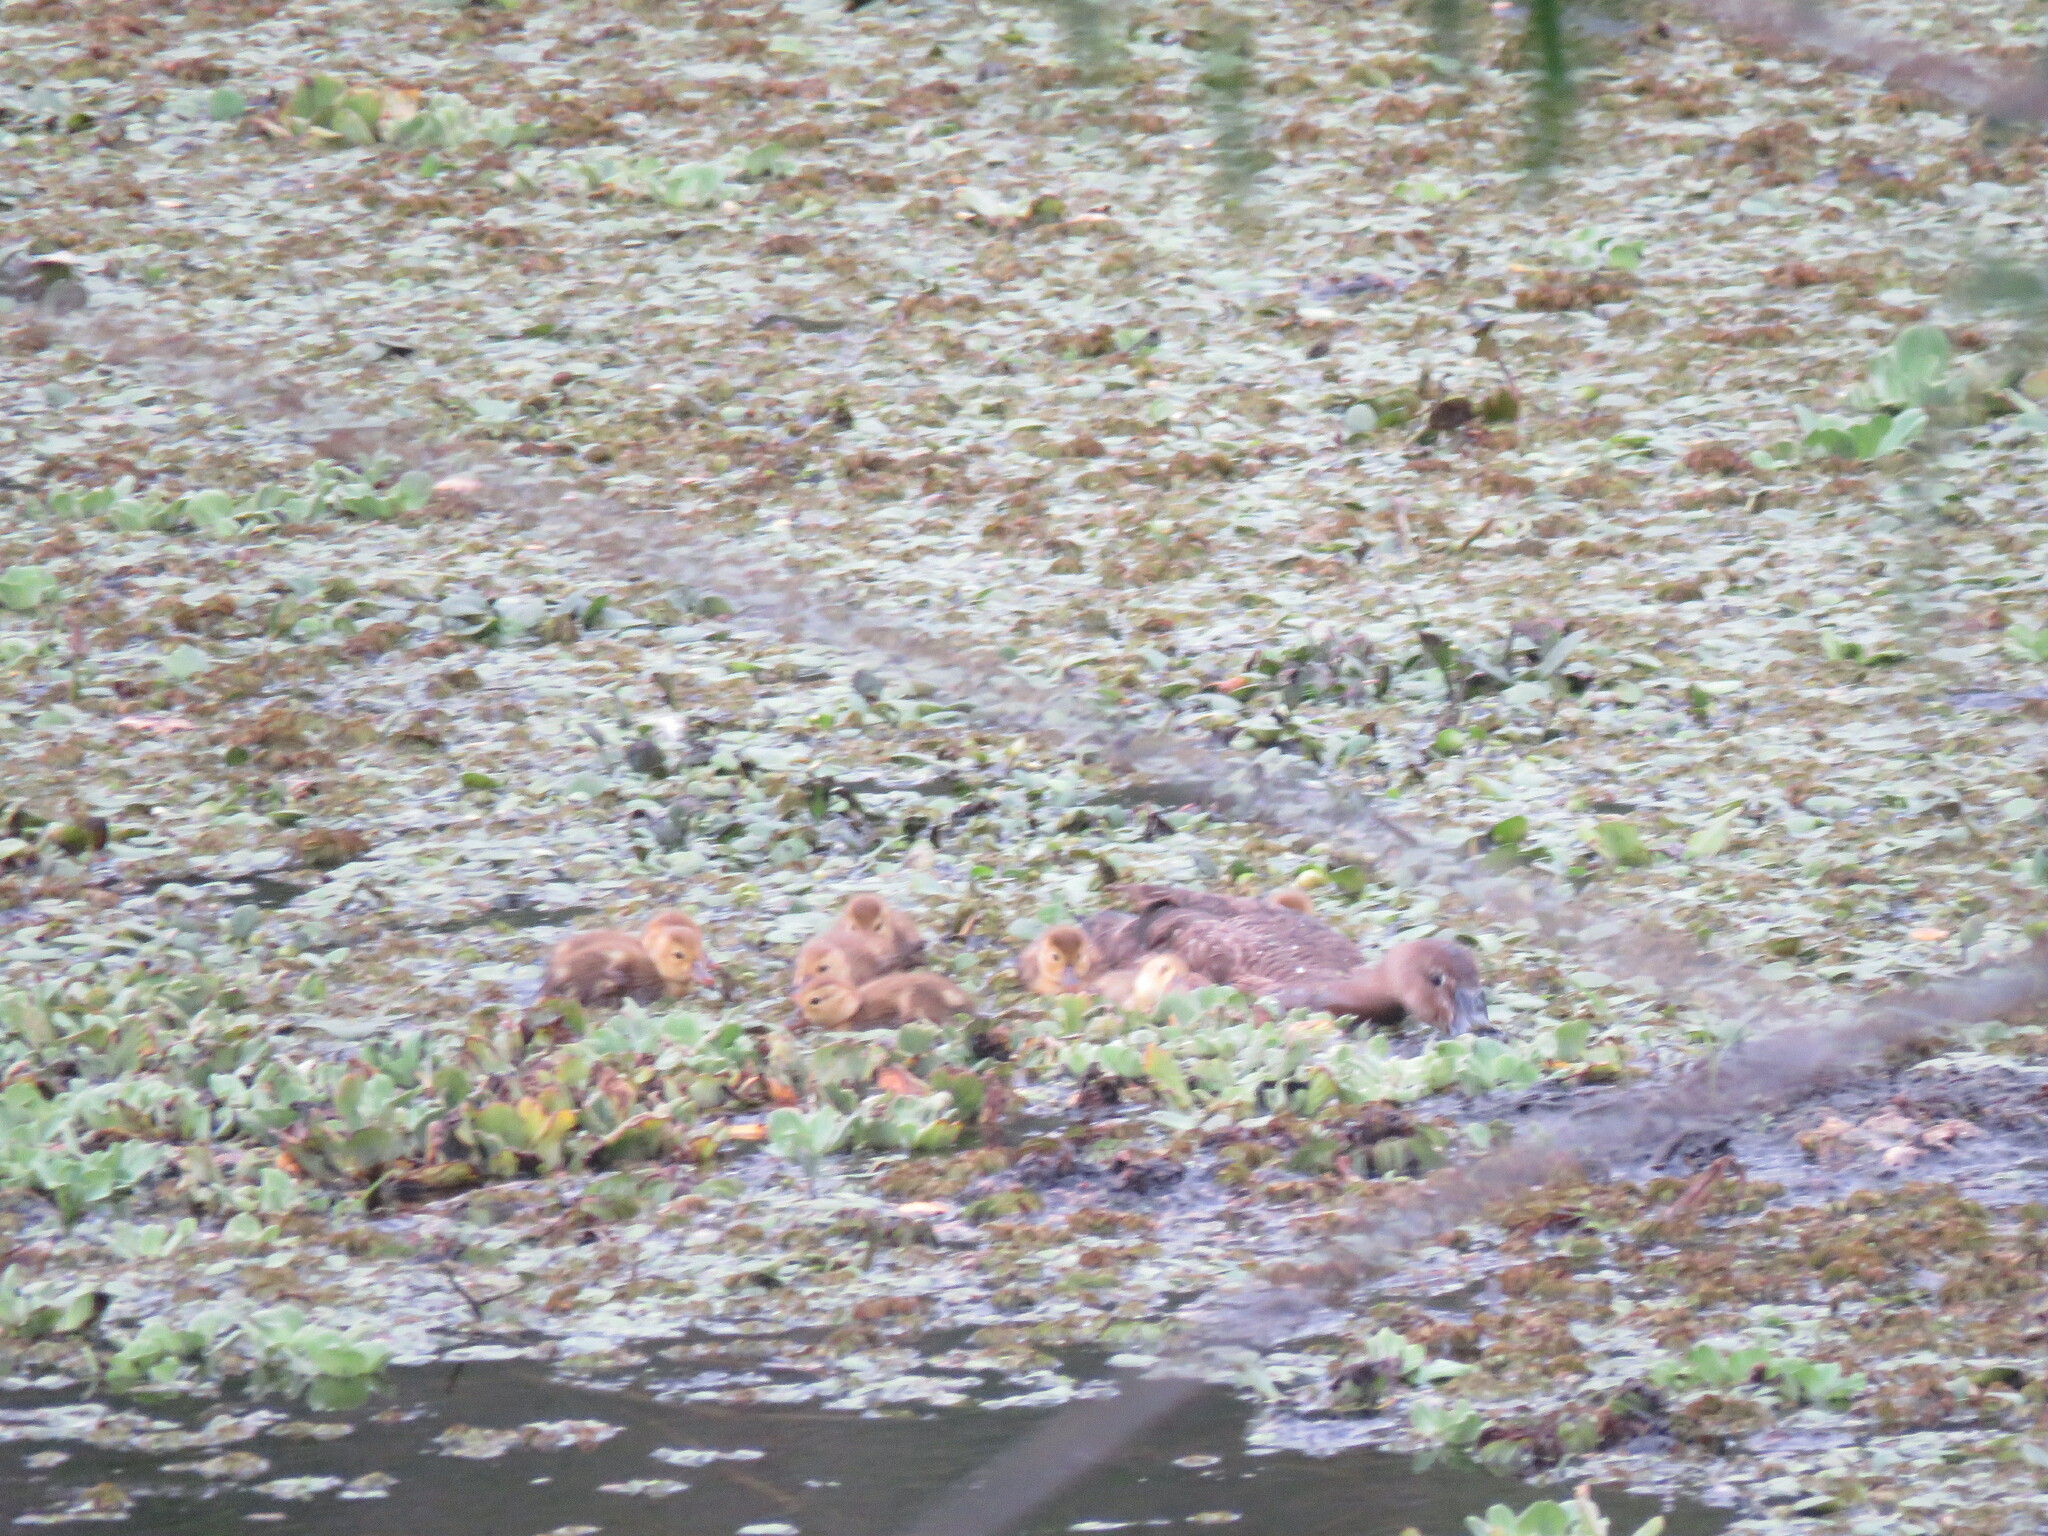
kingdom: Animalia
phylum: Chordata
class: Aves
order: Anseriformes
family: Anatidae
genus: Netta
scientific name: Netta peposaca
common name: Rosy-billed pochard
